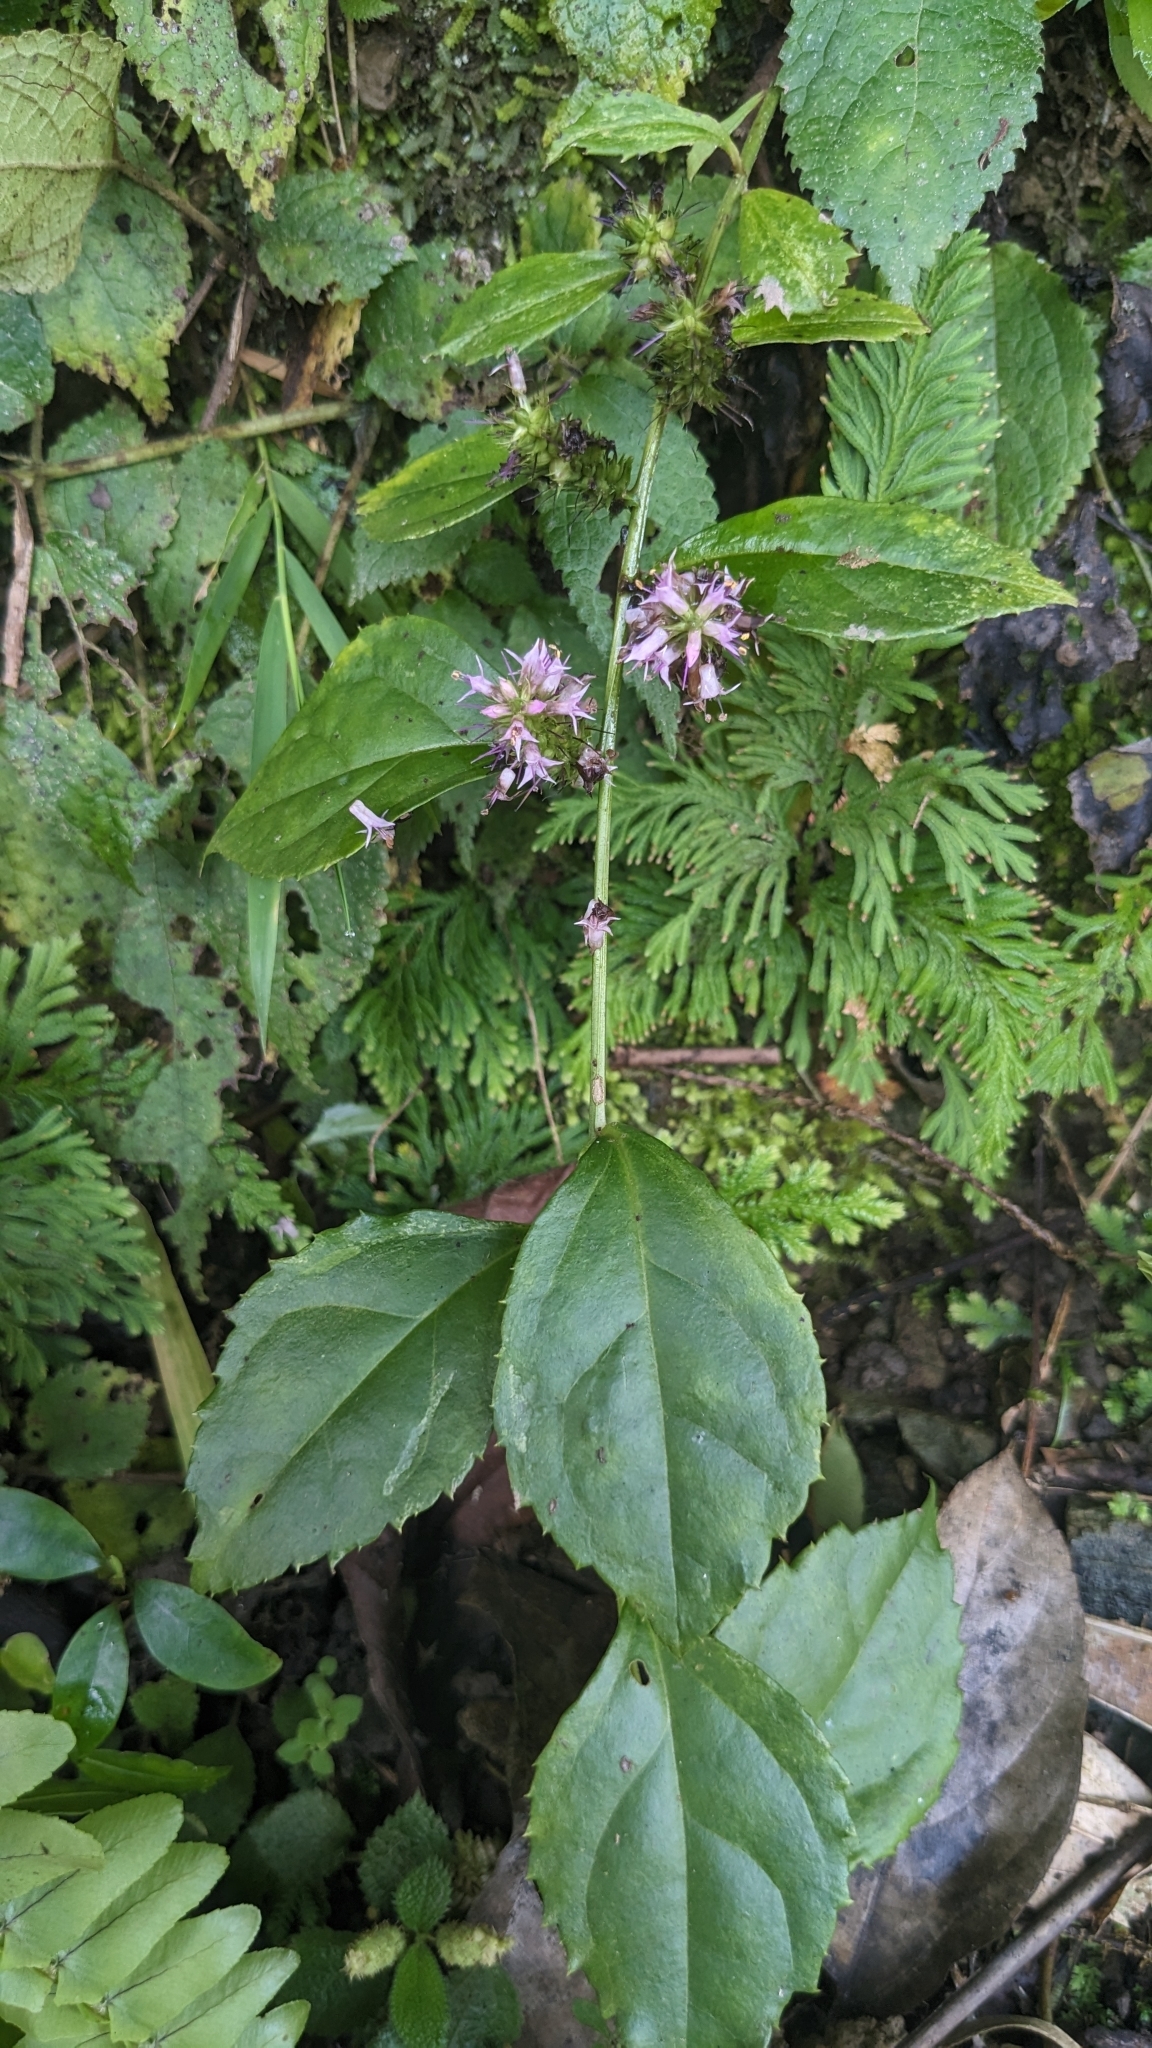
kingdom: Plantae
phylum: Tracheophyta
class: Magnoliopsida
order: Lamiales
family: Plantaginaceae
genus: Veronicastrum
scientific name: Veronicastrum axillare
